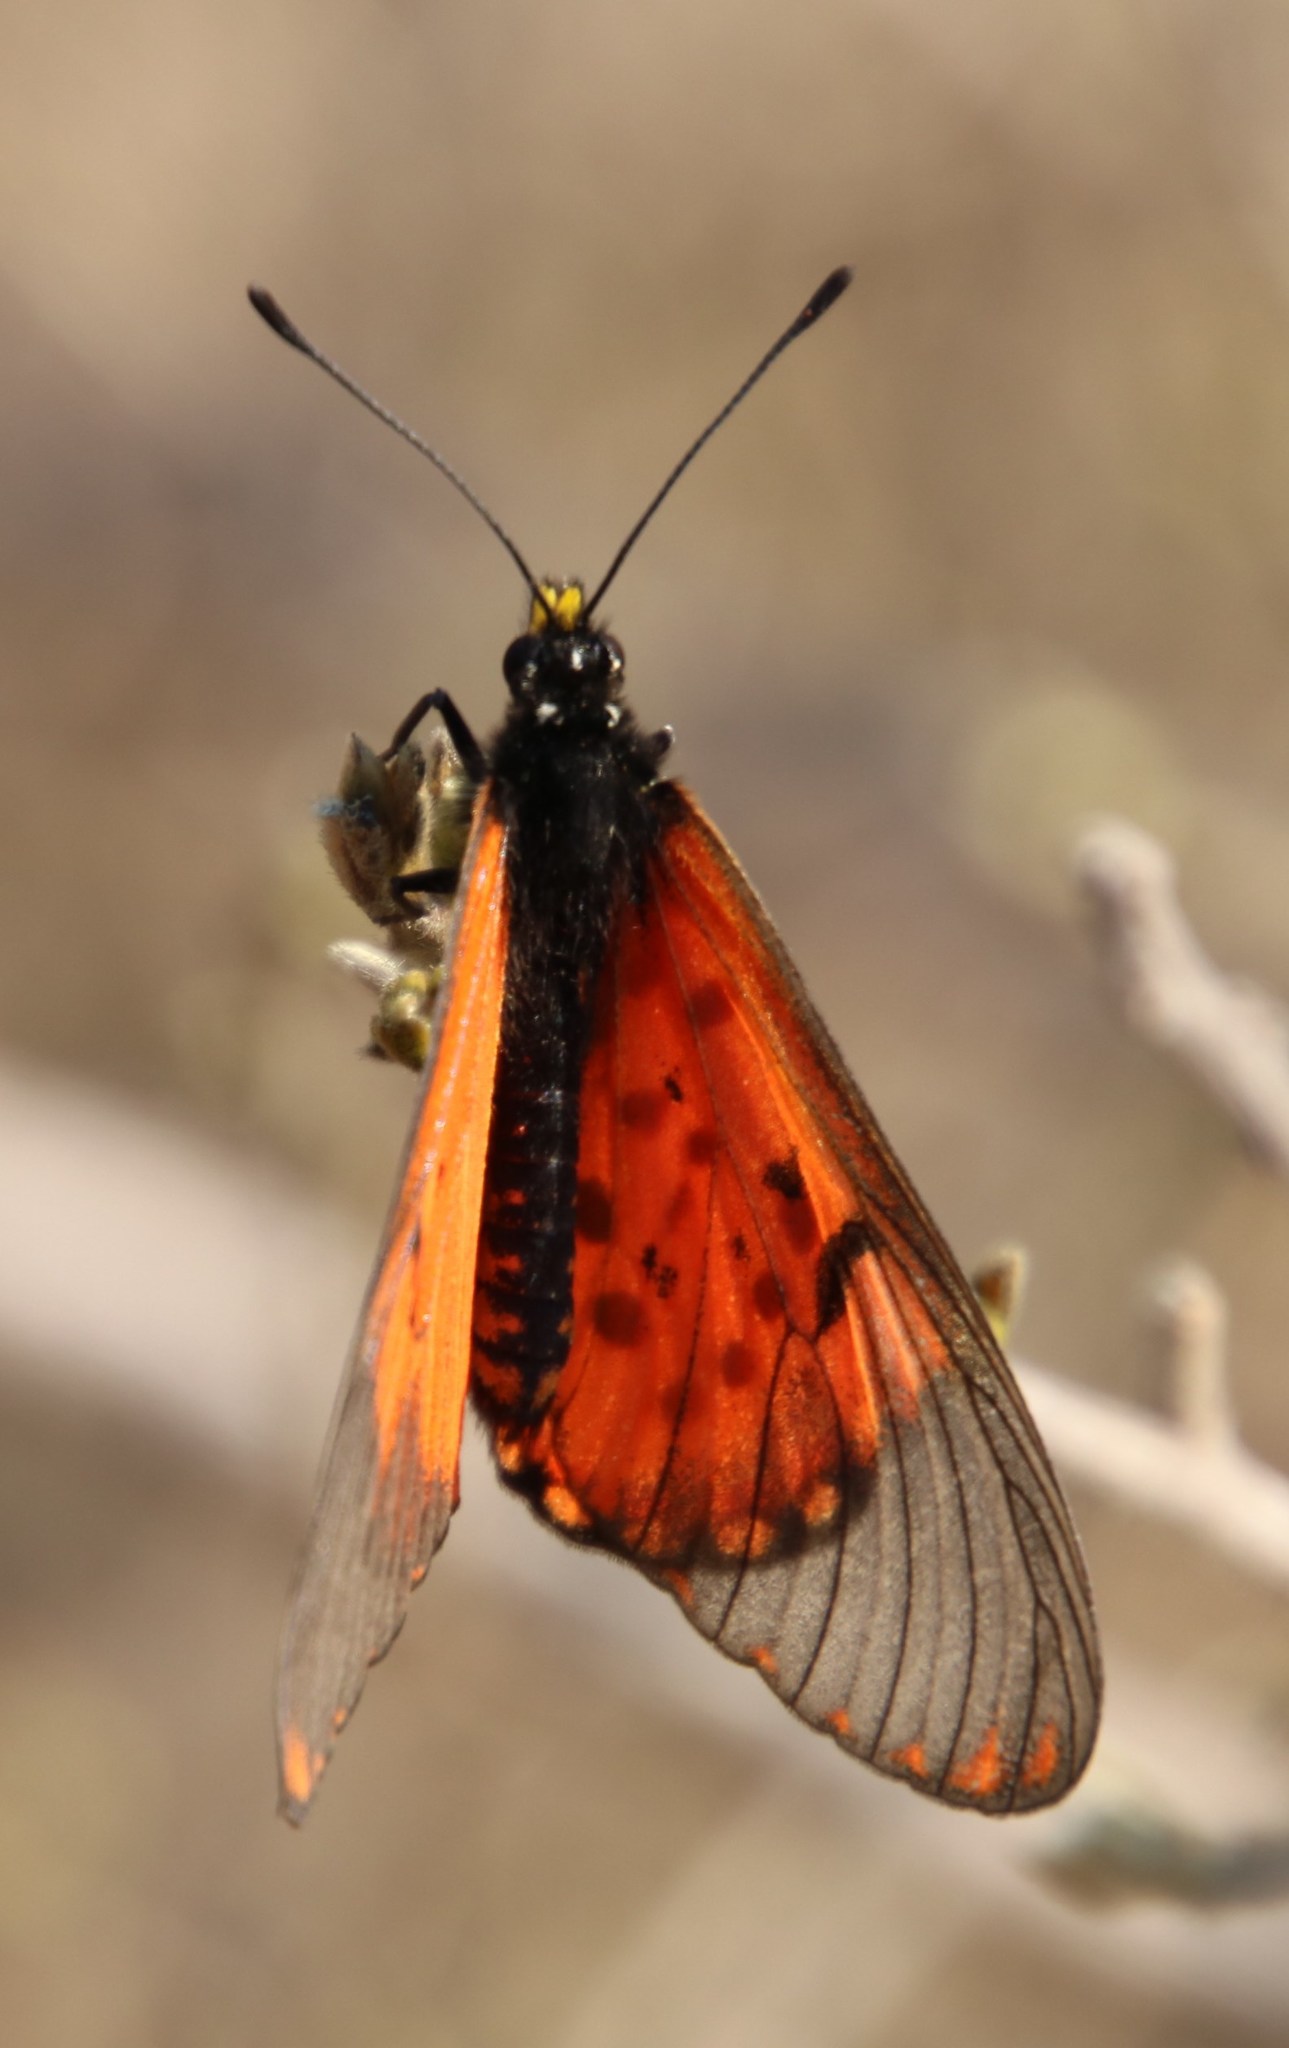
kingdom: Animalia
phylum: Arthropoda
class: Insecta
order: Lepidoptera
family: Nymphalidae
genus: Acraea
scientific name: Acraea horta
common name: Garden acraea
